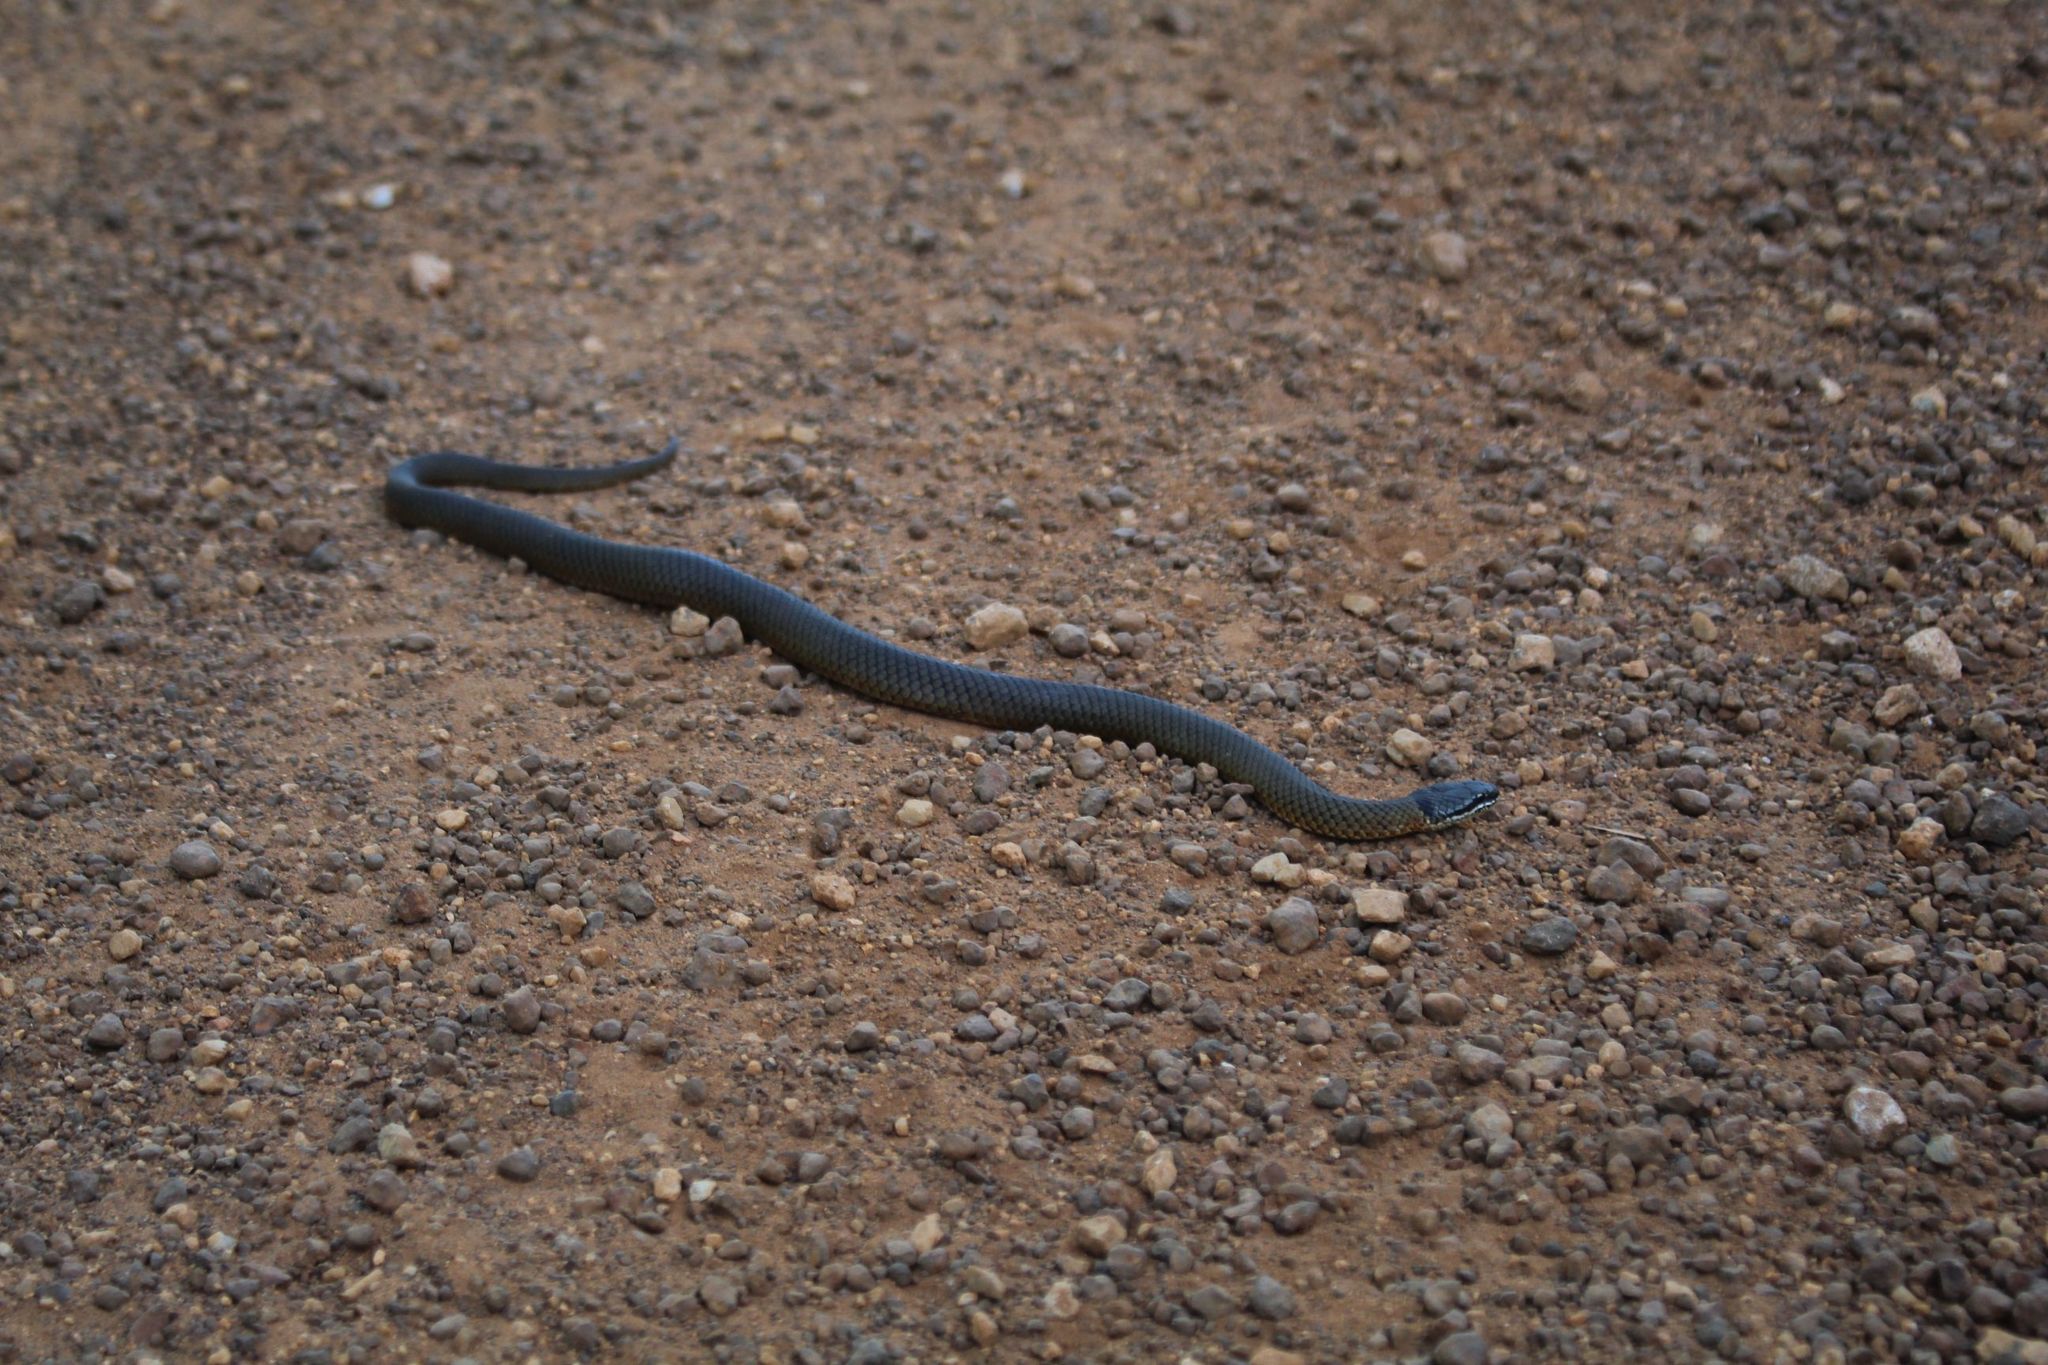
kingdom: Animalia
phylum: Chordata
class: Squamata
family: Elapidae
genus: Elapognathus
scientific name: Elapognathus coronatus
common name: Crowned snake
